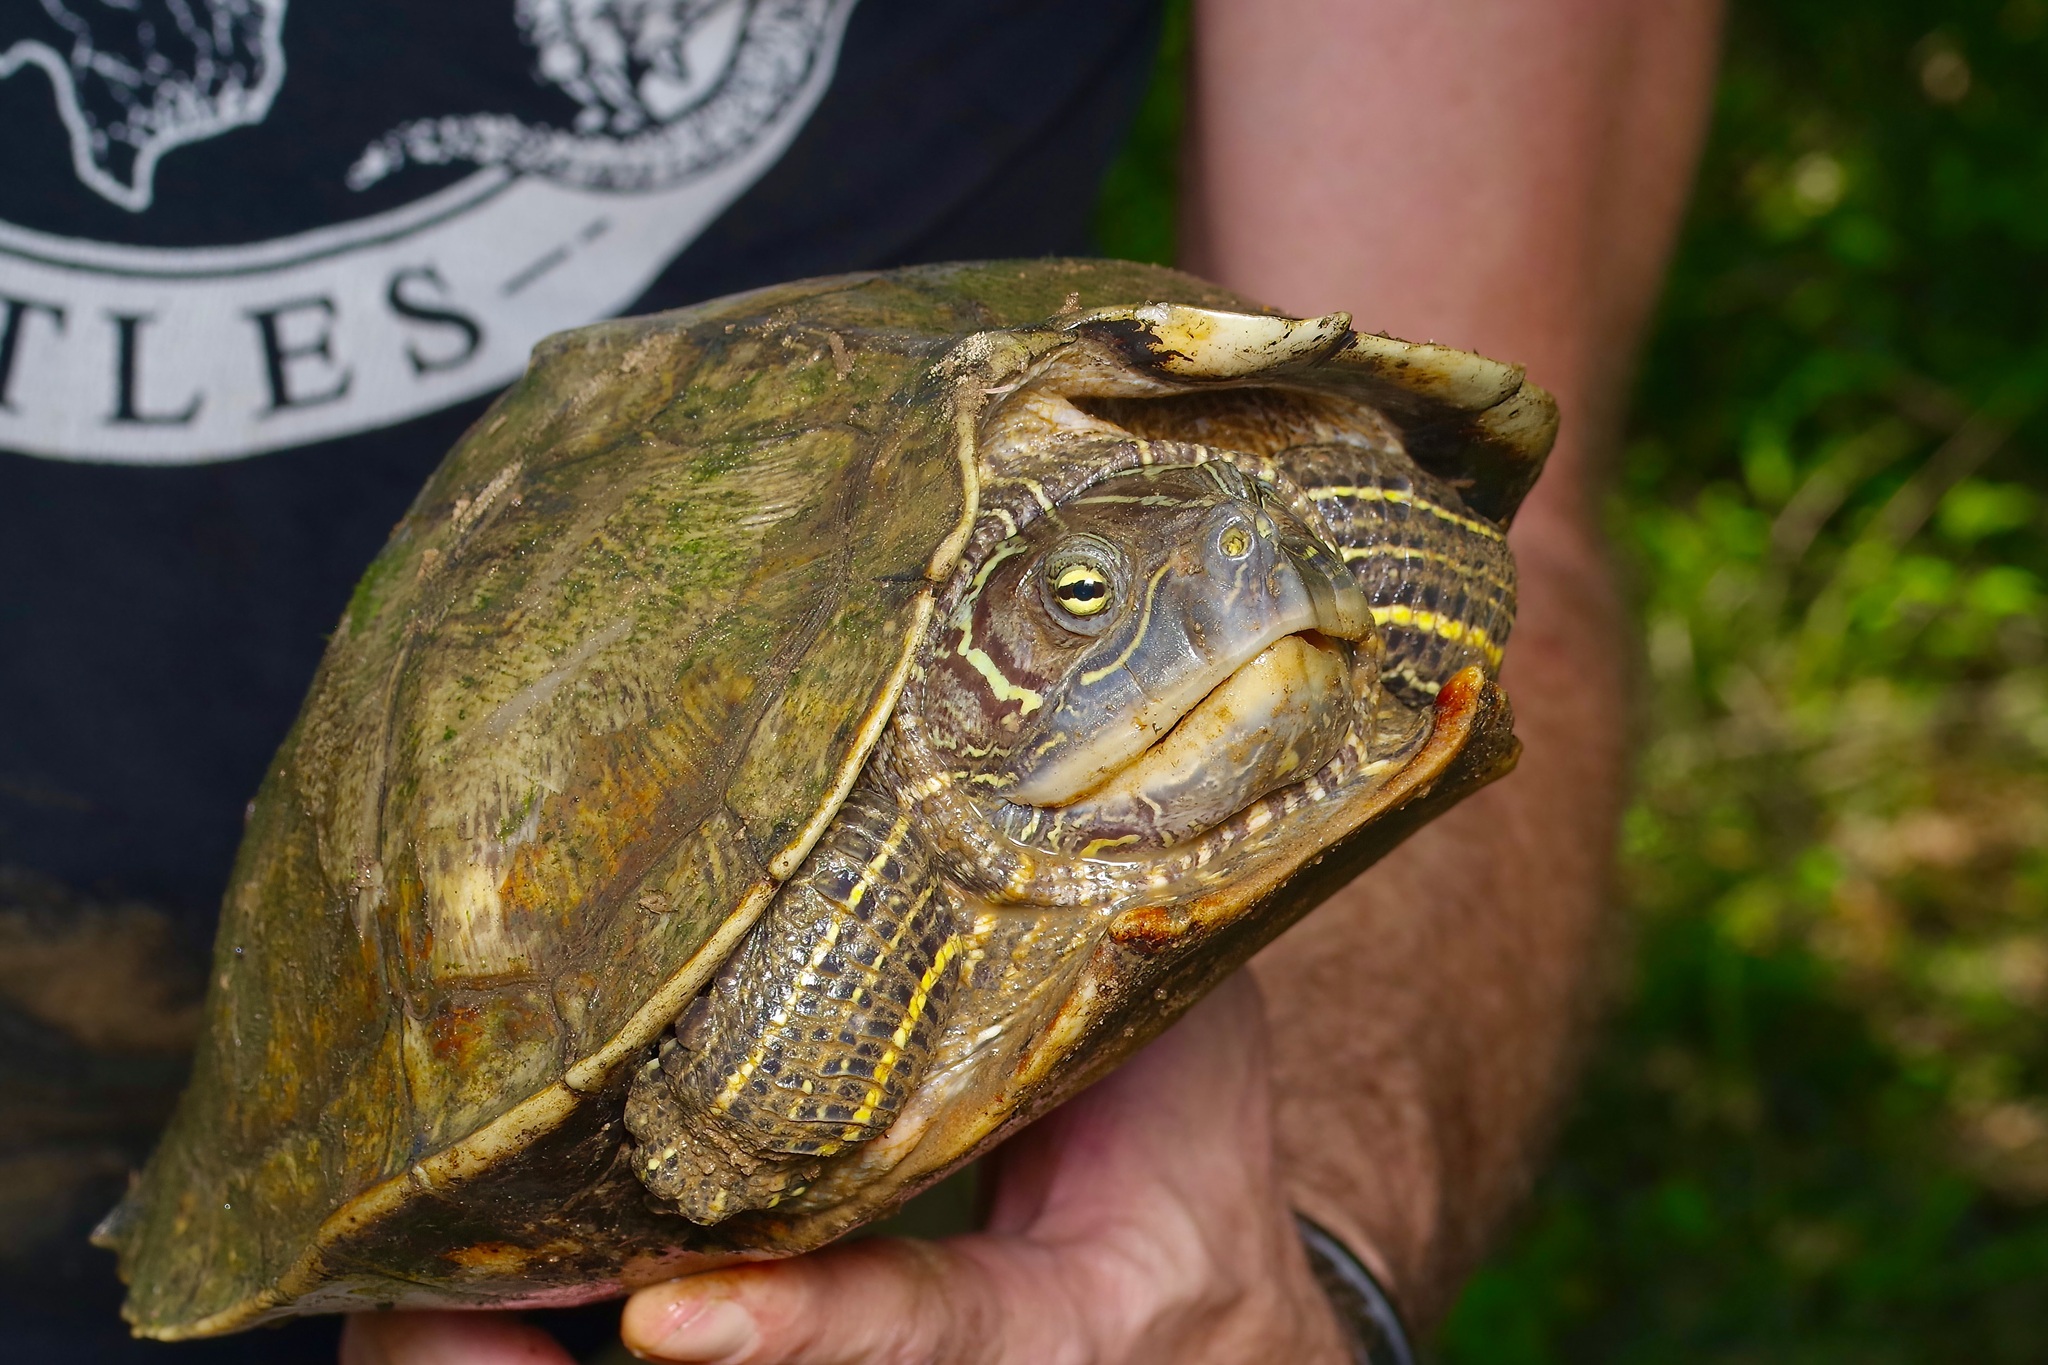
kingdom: Animalia
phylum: Chordata
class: Testudines
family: Emydidae
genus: Graptemys
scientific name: Graptemys pseudogeographica
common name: False map turtle
